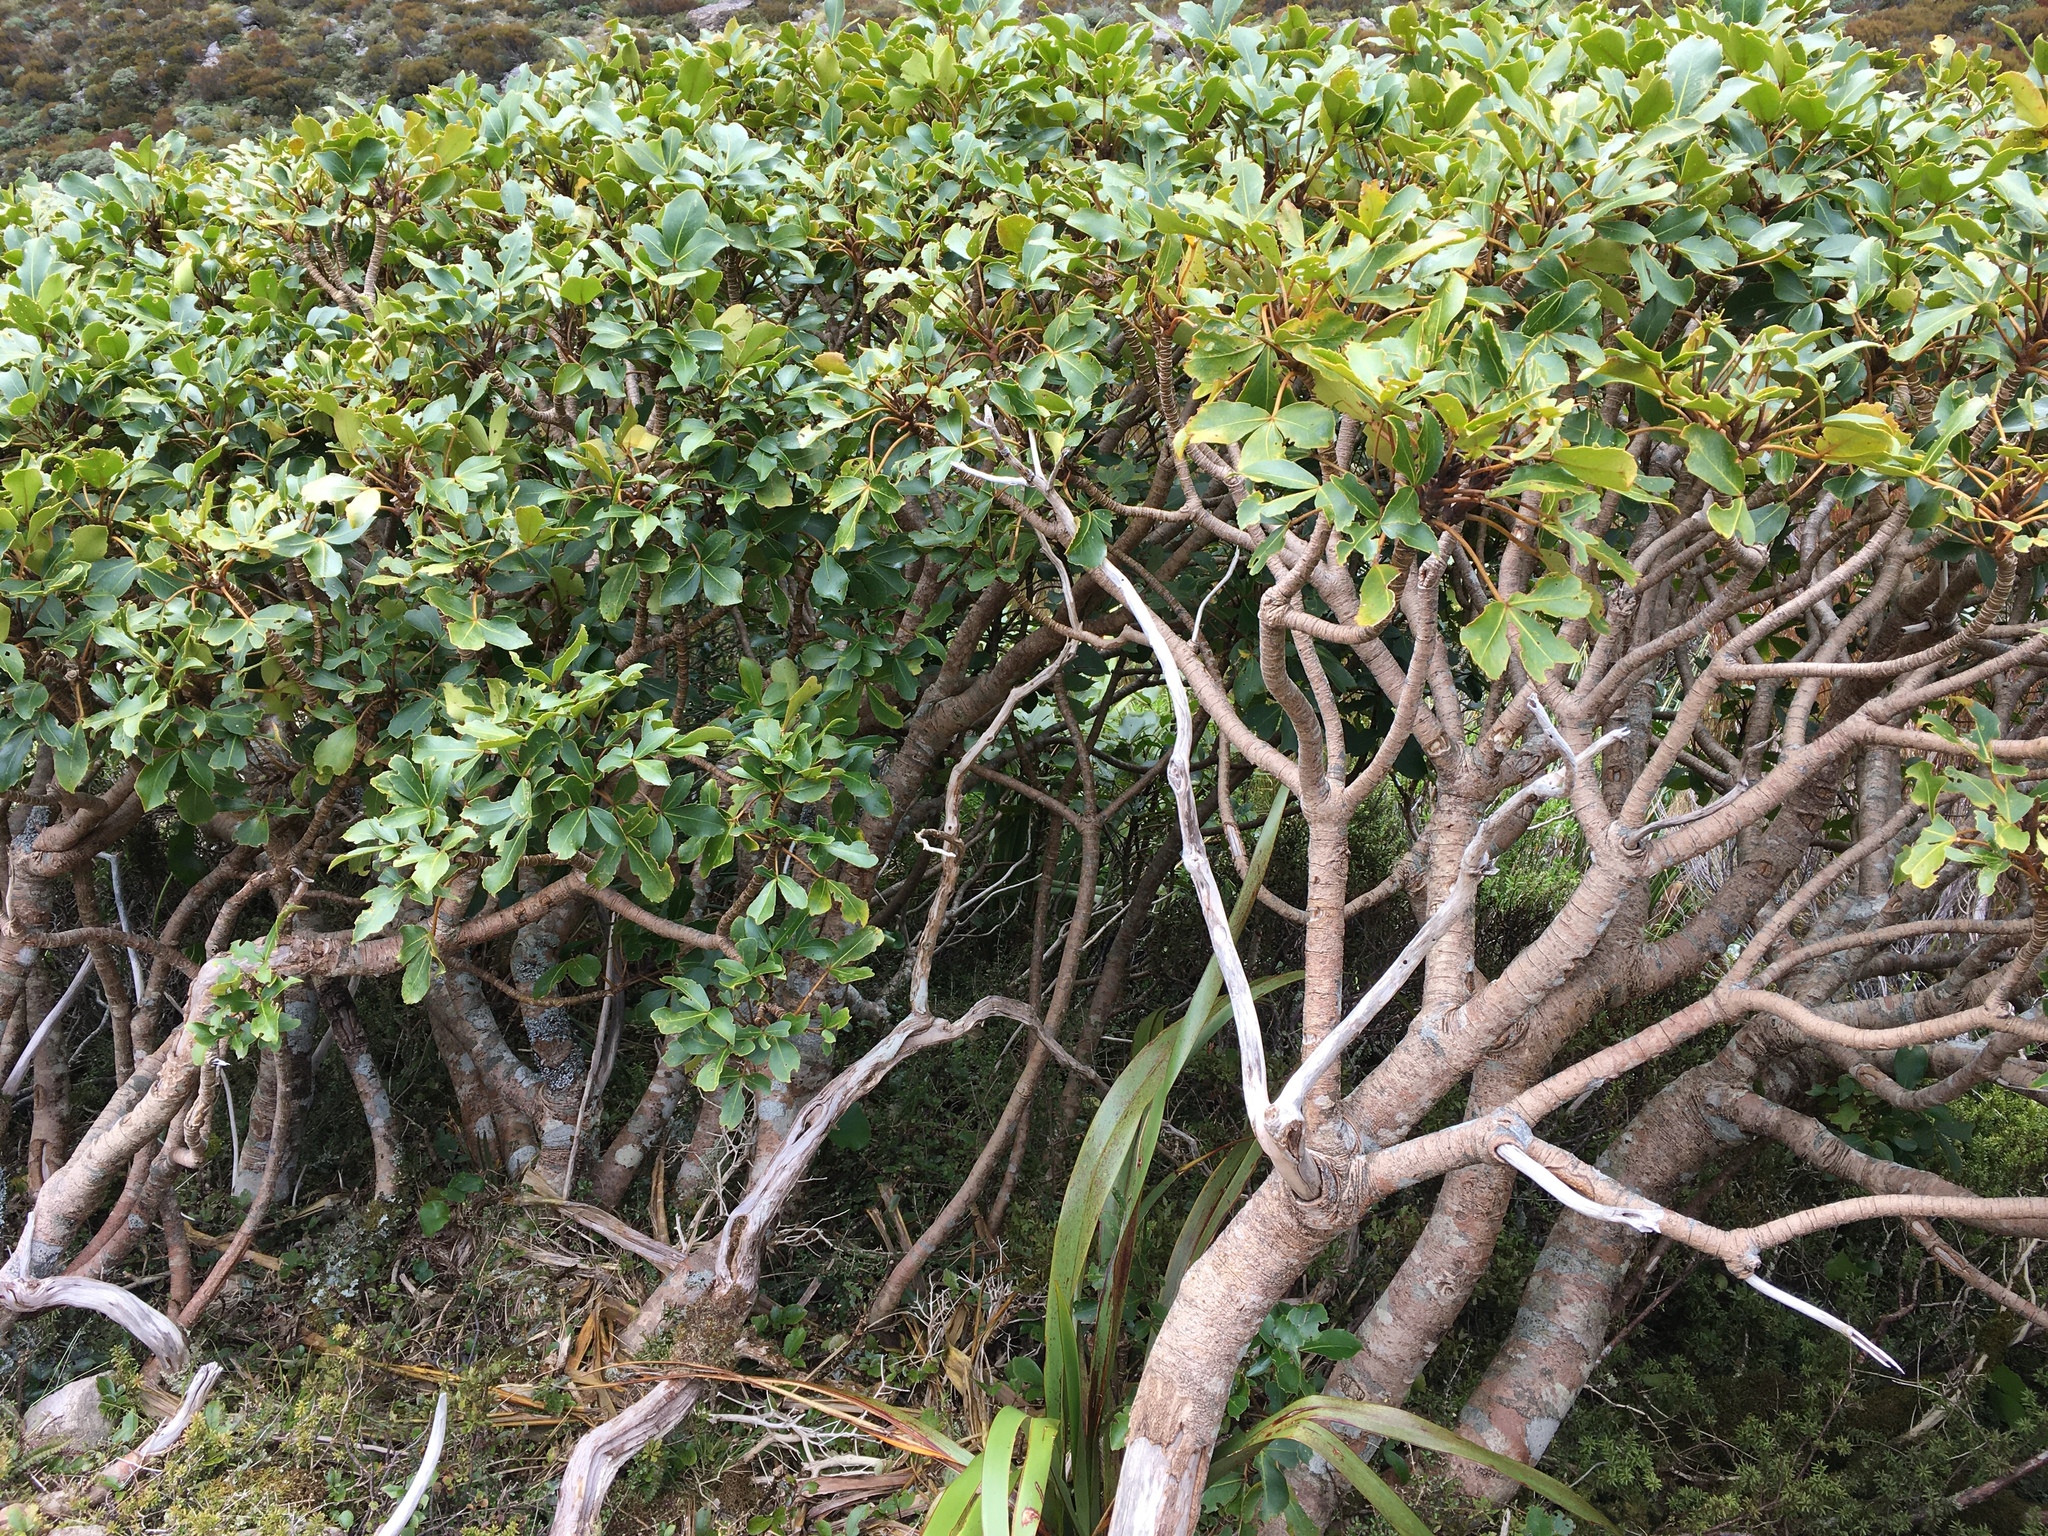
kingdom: Plantae
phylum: Tracheophyta
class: Magnoliopsida
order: Apiales
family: Araliaceae
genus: Neopanax
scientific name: Neopanax colensoi
